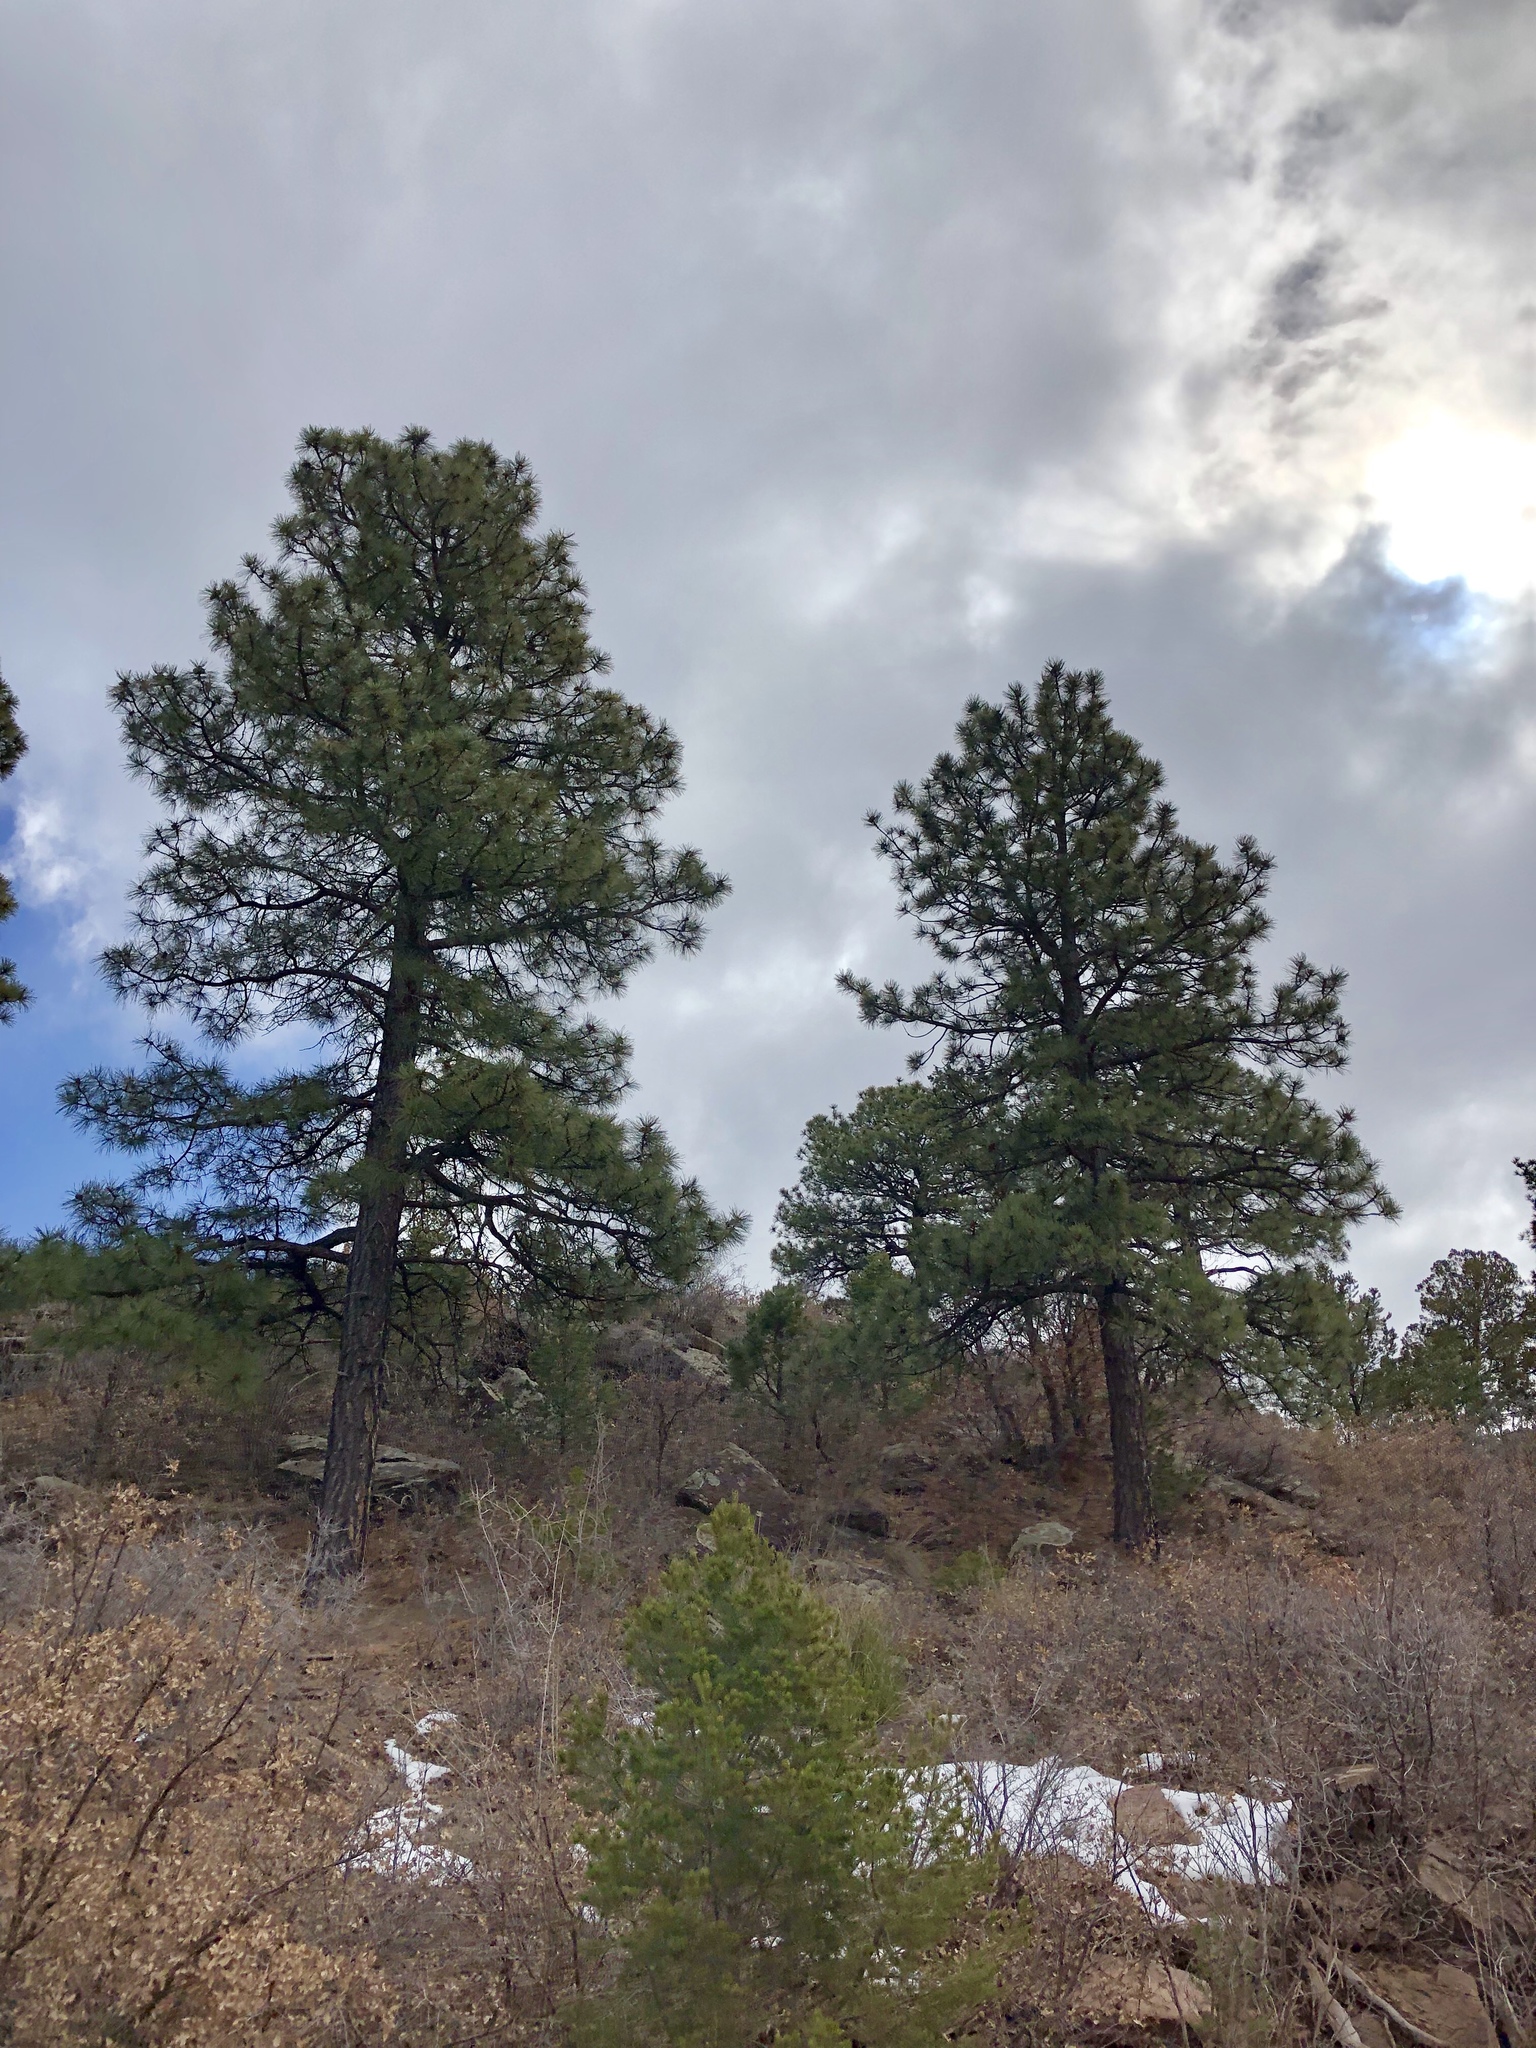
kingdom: Plantae
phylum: Tracheophyta
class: Pinopsida
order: Pinales
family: Pinaceae
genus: Pinus
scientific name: Pinus ponderosa
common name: Western yellow-pine
